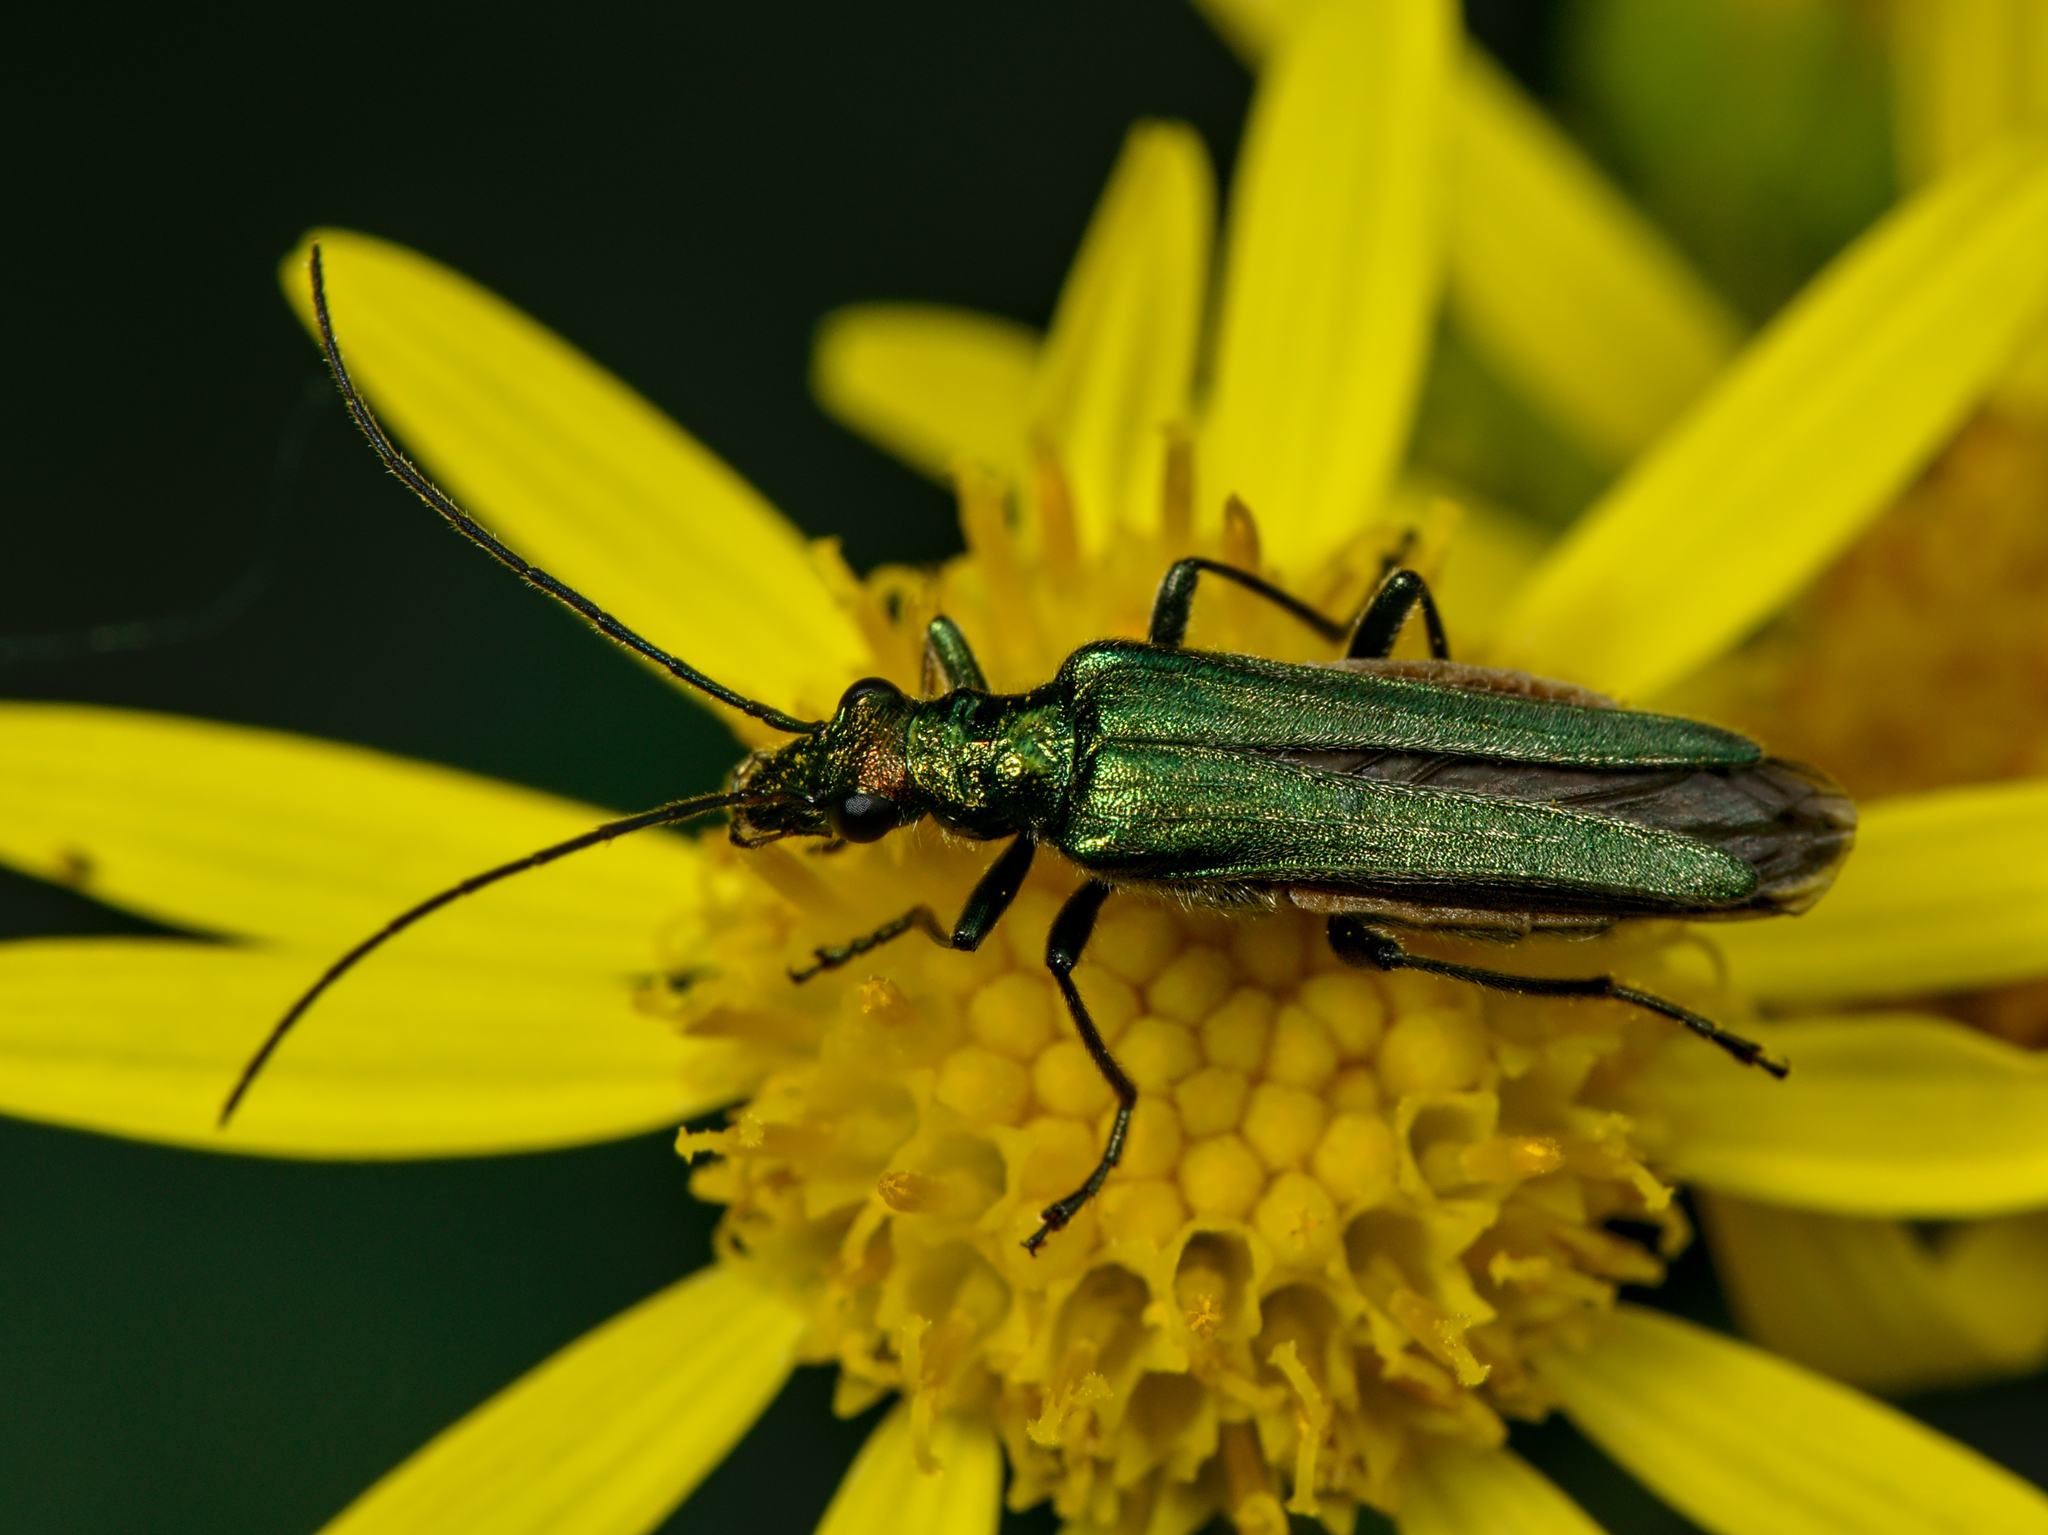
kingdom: Animalia
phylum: Arthropoda
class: Insecta
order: Coleoptera
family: Oedemeridae
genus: Oedemera
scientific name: Oedemera nobilis
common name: Swollen-thighed beetle
